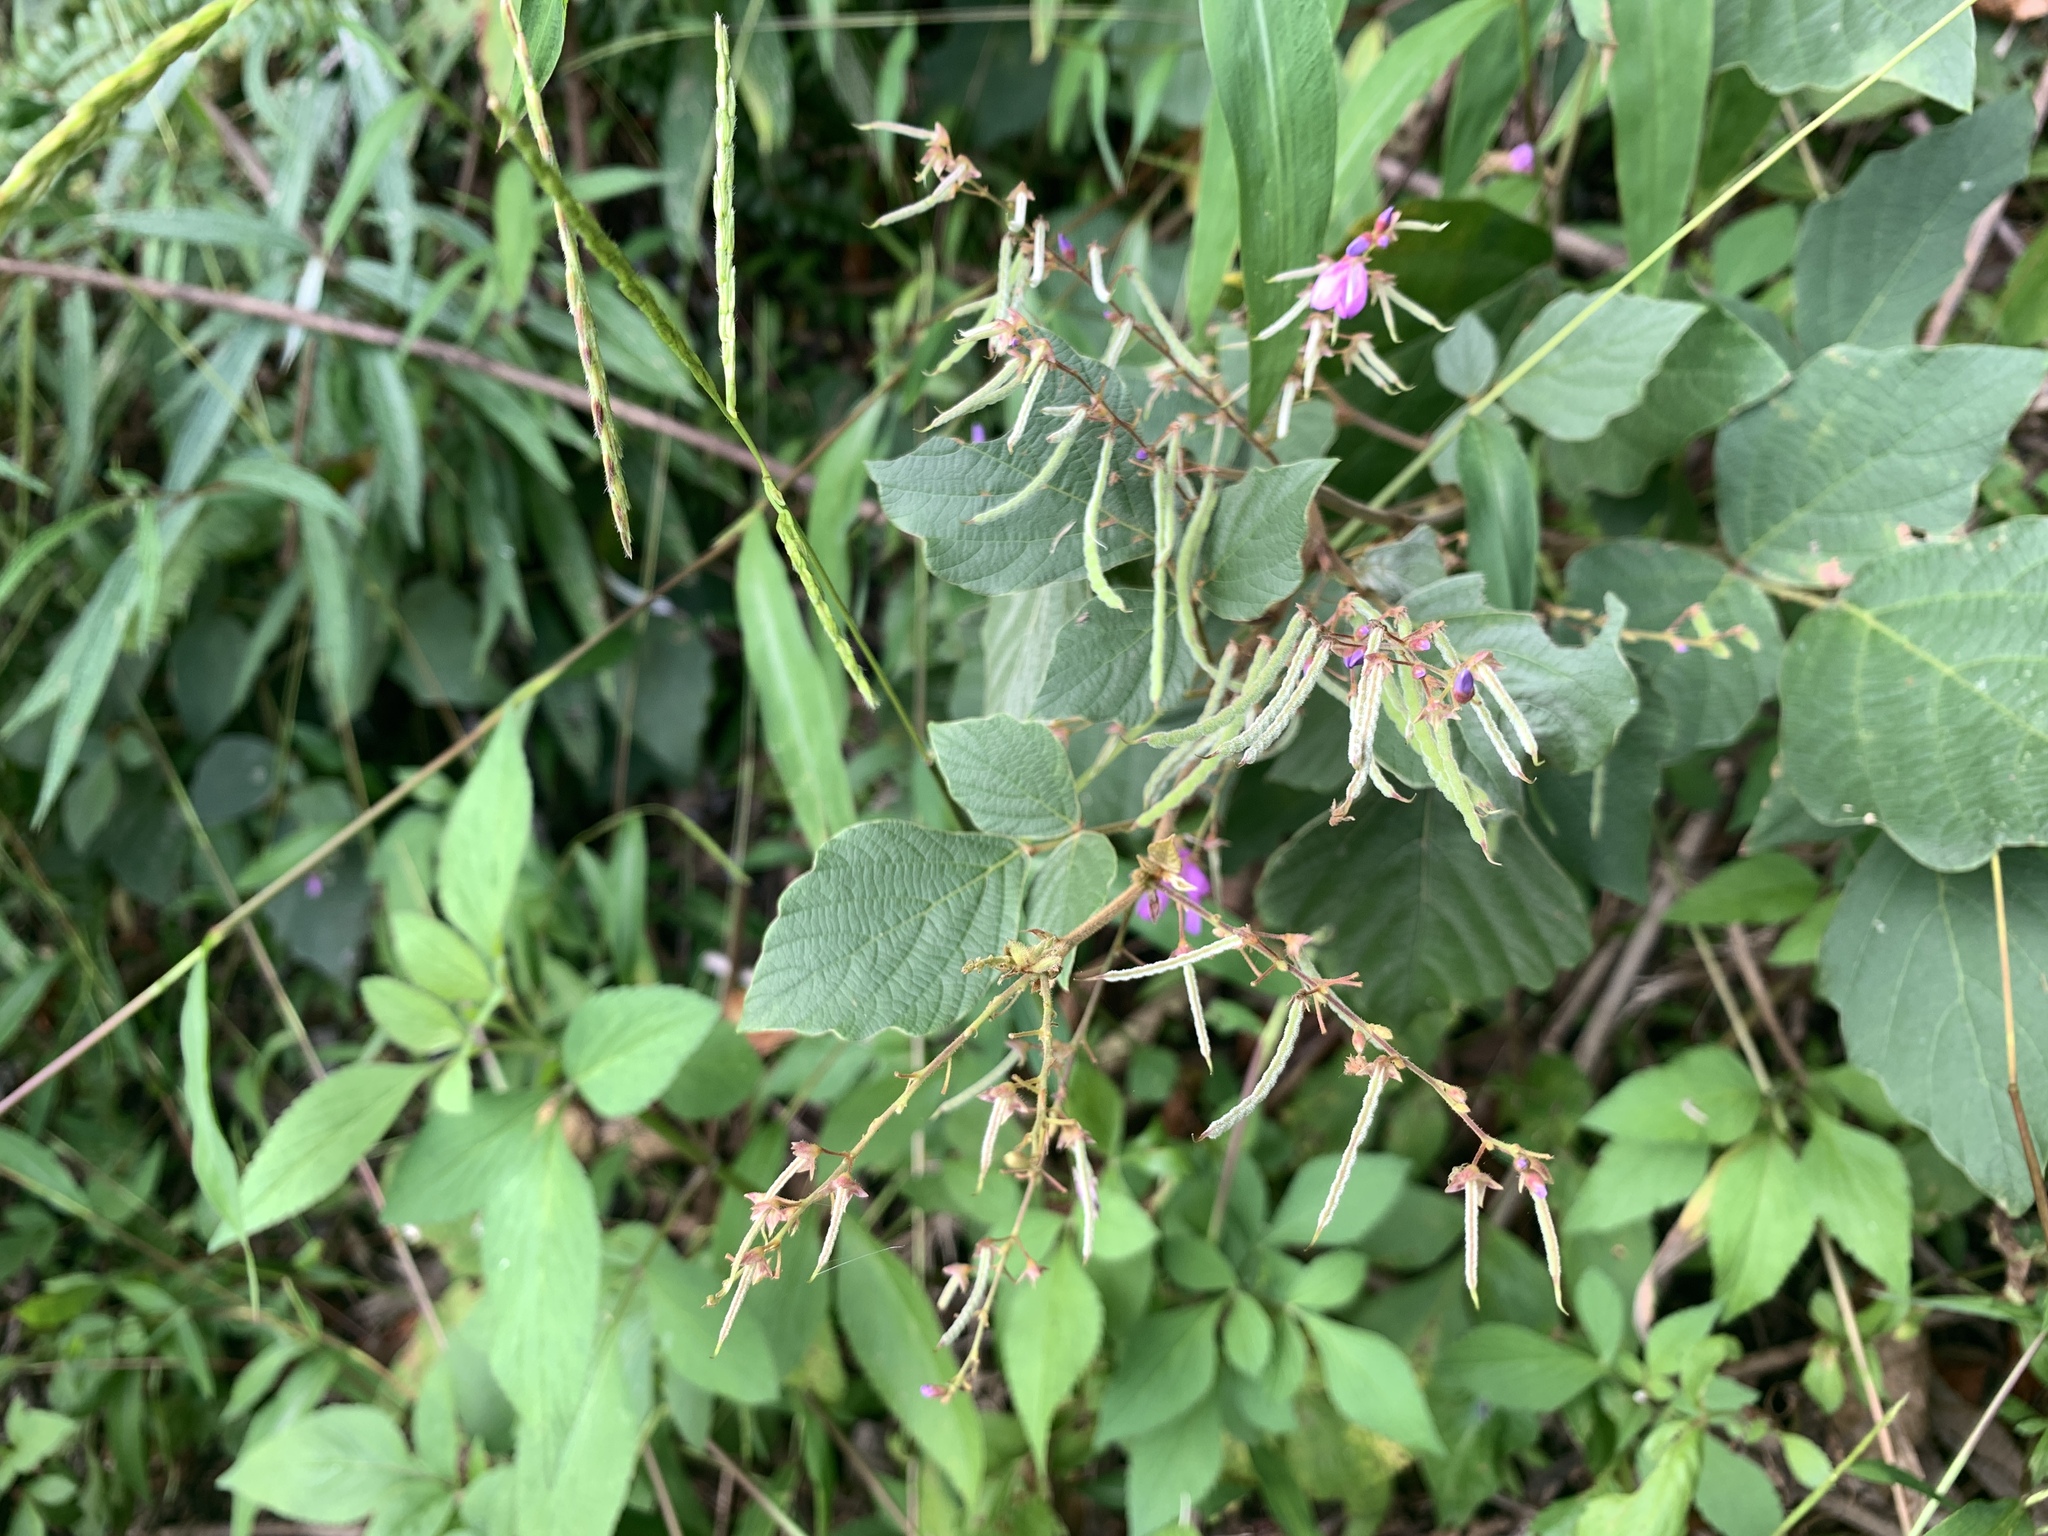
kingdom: Plantae
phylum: Tracheophyta
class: Magnoliopsida
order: Fabales
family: Fabaceae
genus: Puhuaea
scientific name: Puhuaea sequax
